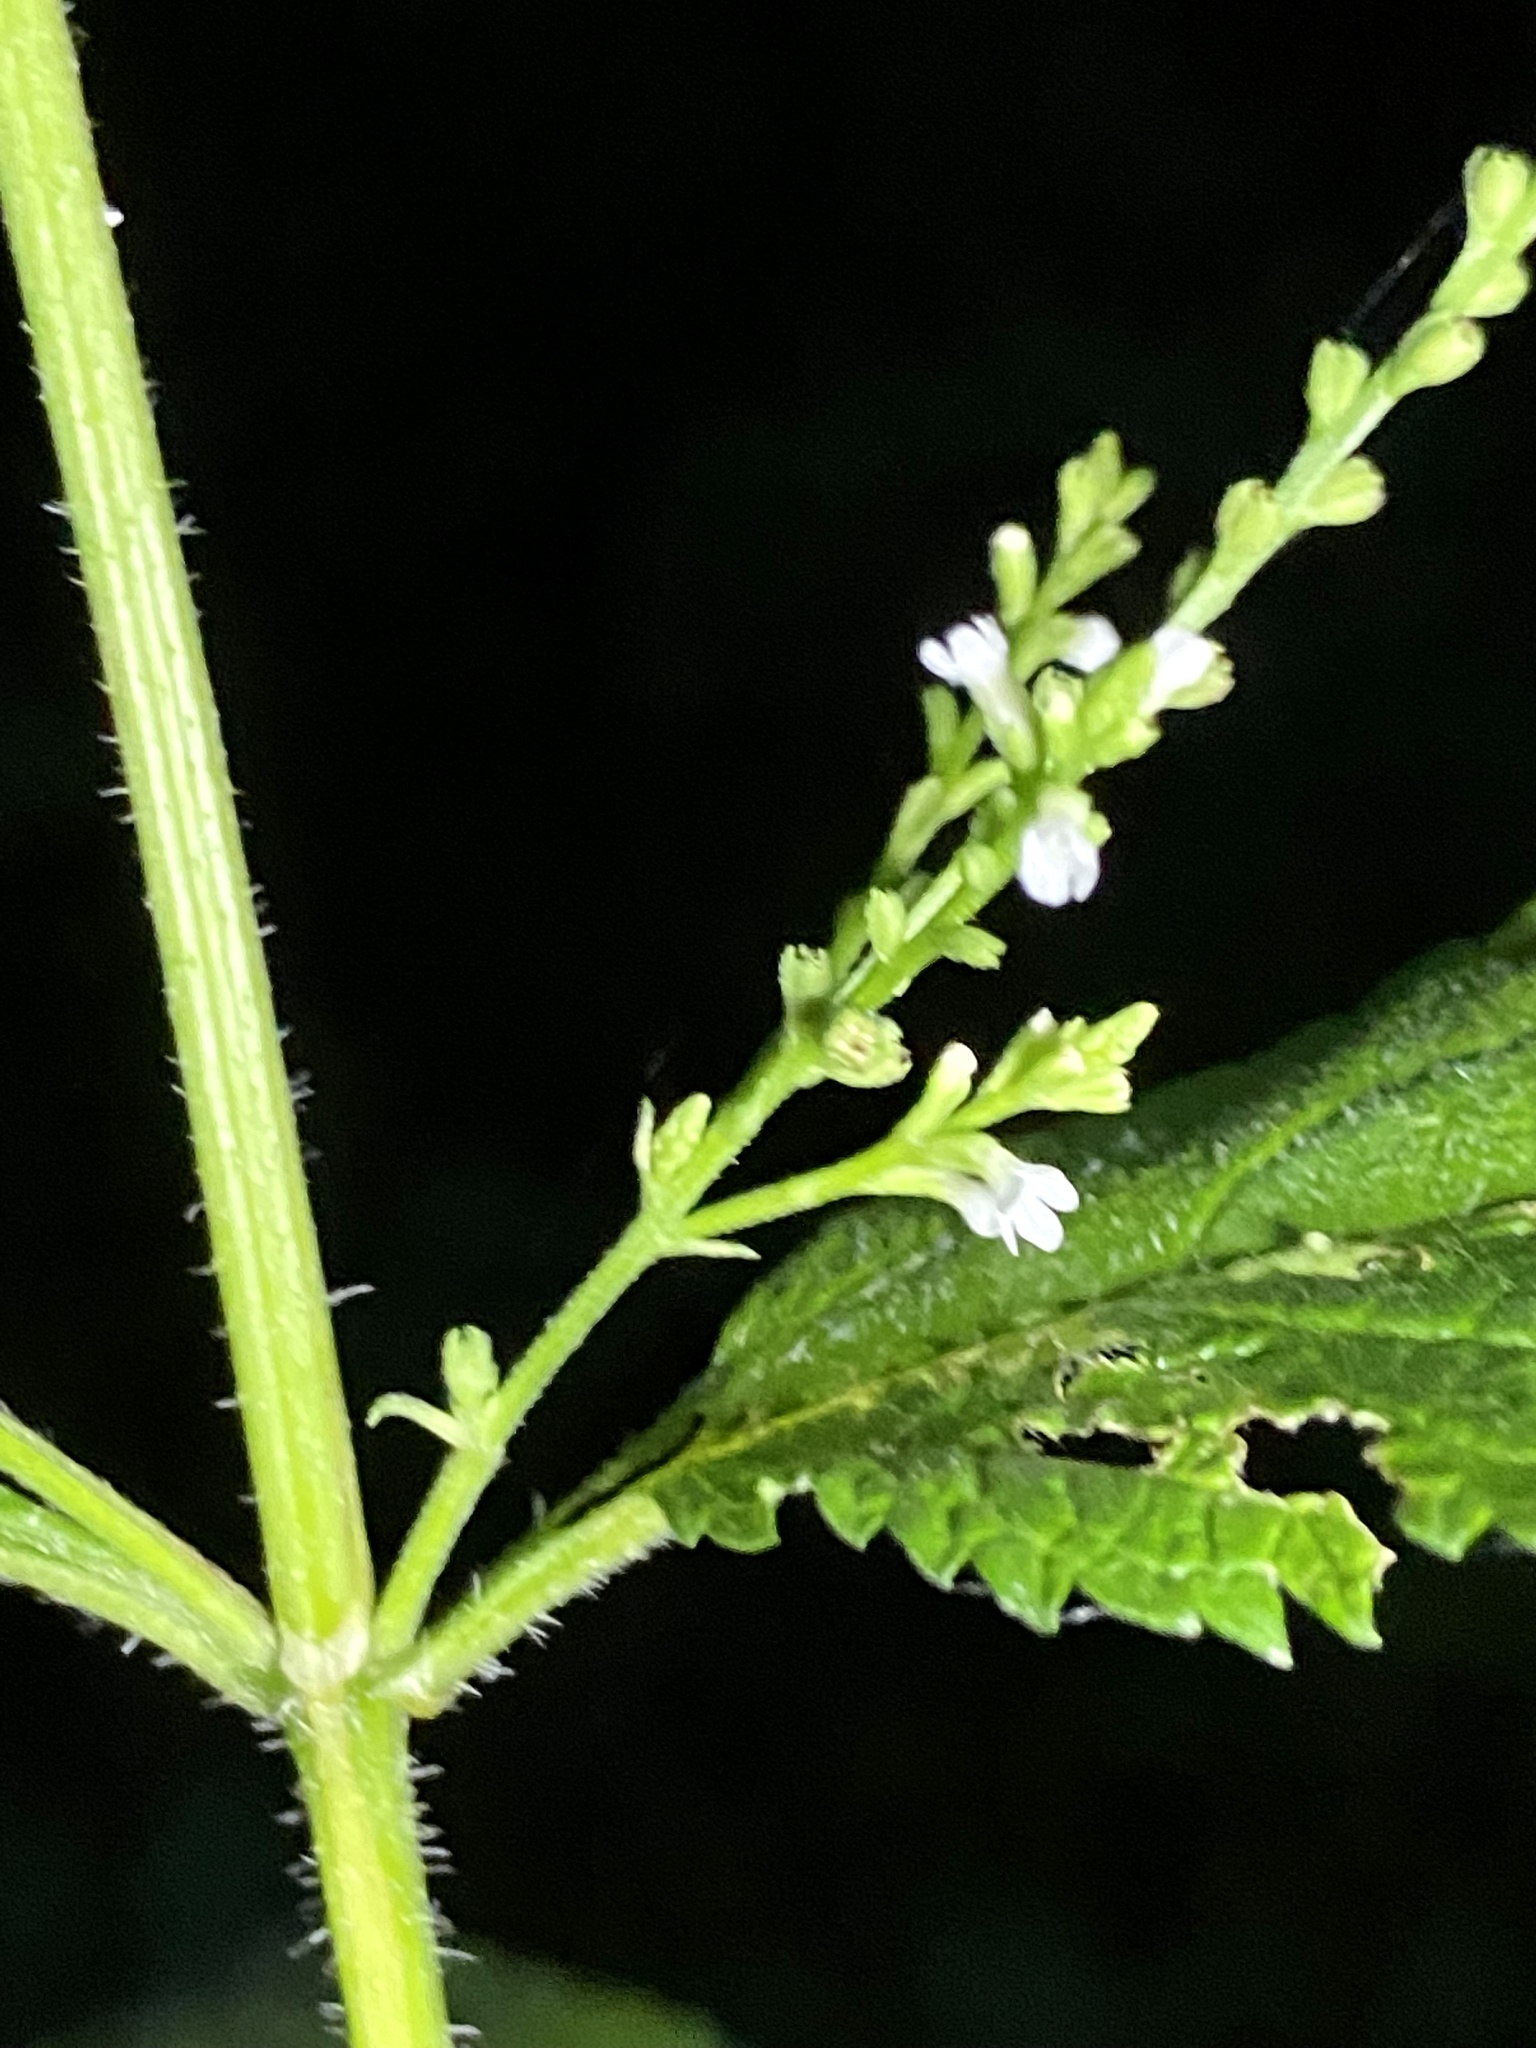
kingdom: Plantae
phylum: Tracheophyta
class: Magnoliopsida
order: Lamiales
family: Verbenaceae
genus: Verbena
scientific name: Verbena urticifolia
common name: Nettle-leaved vervain
